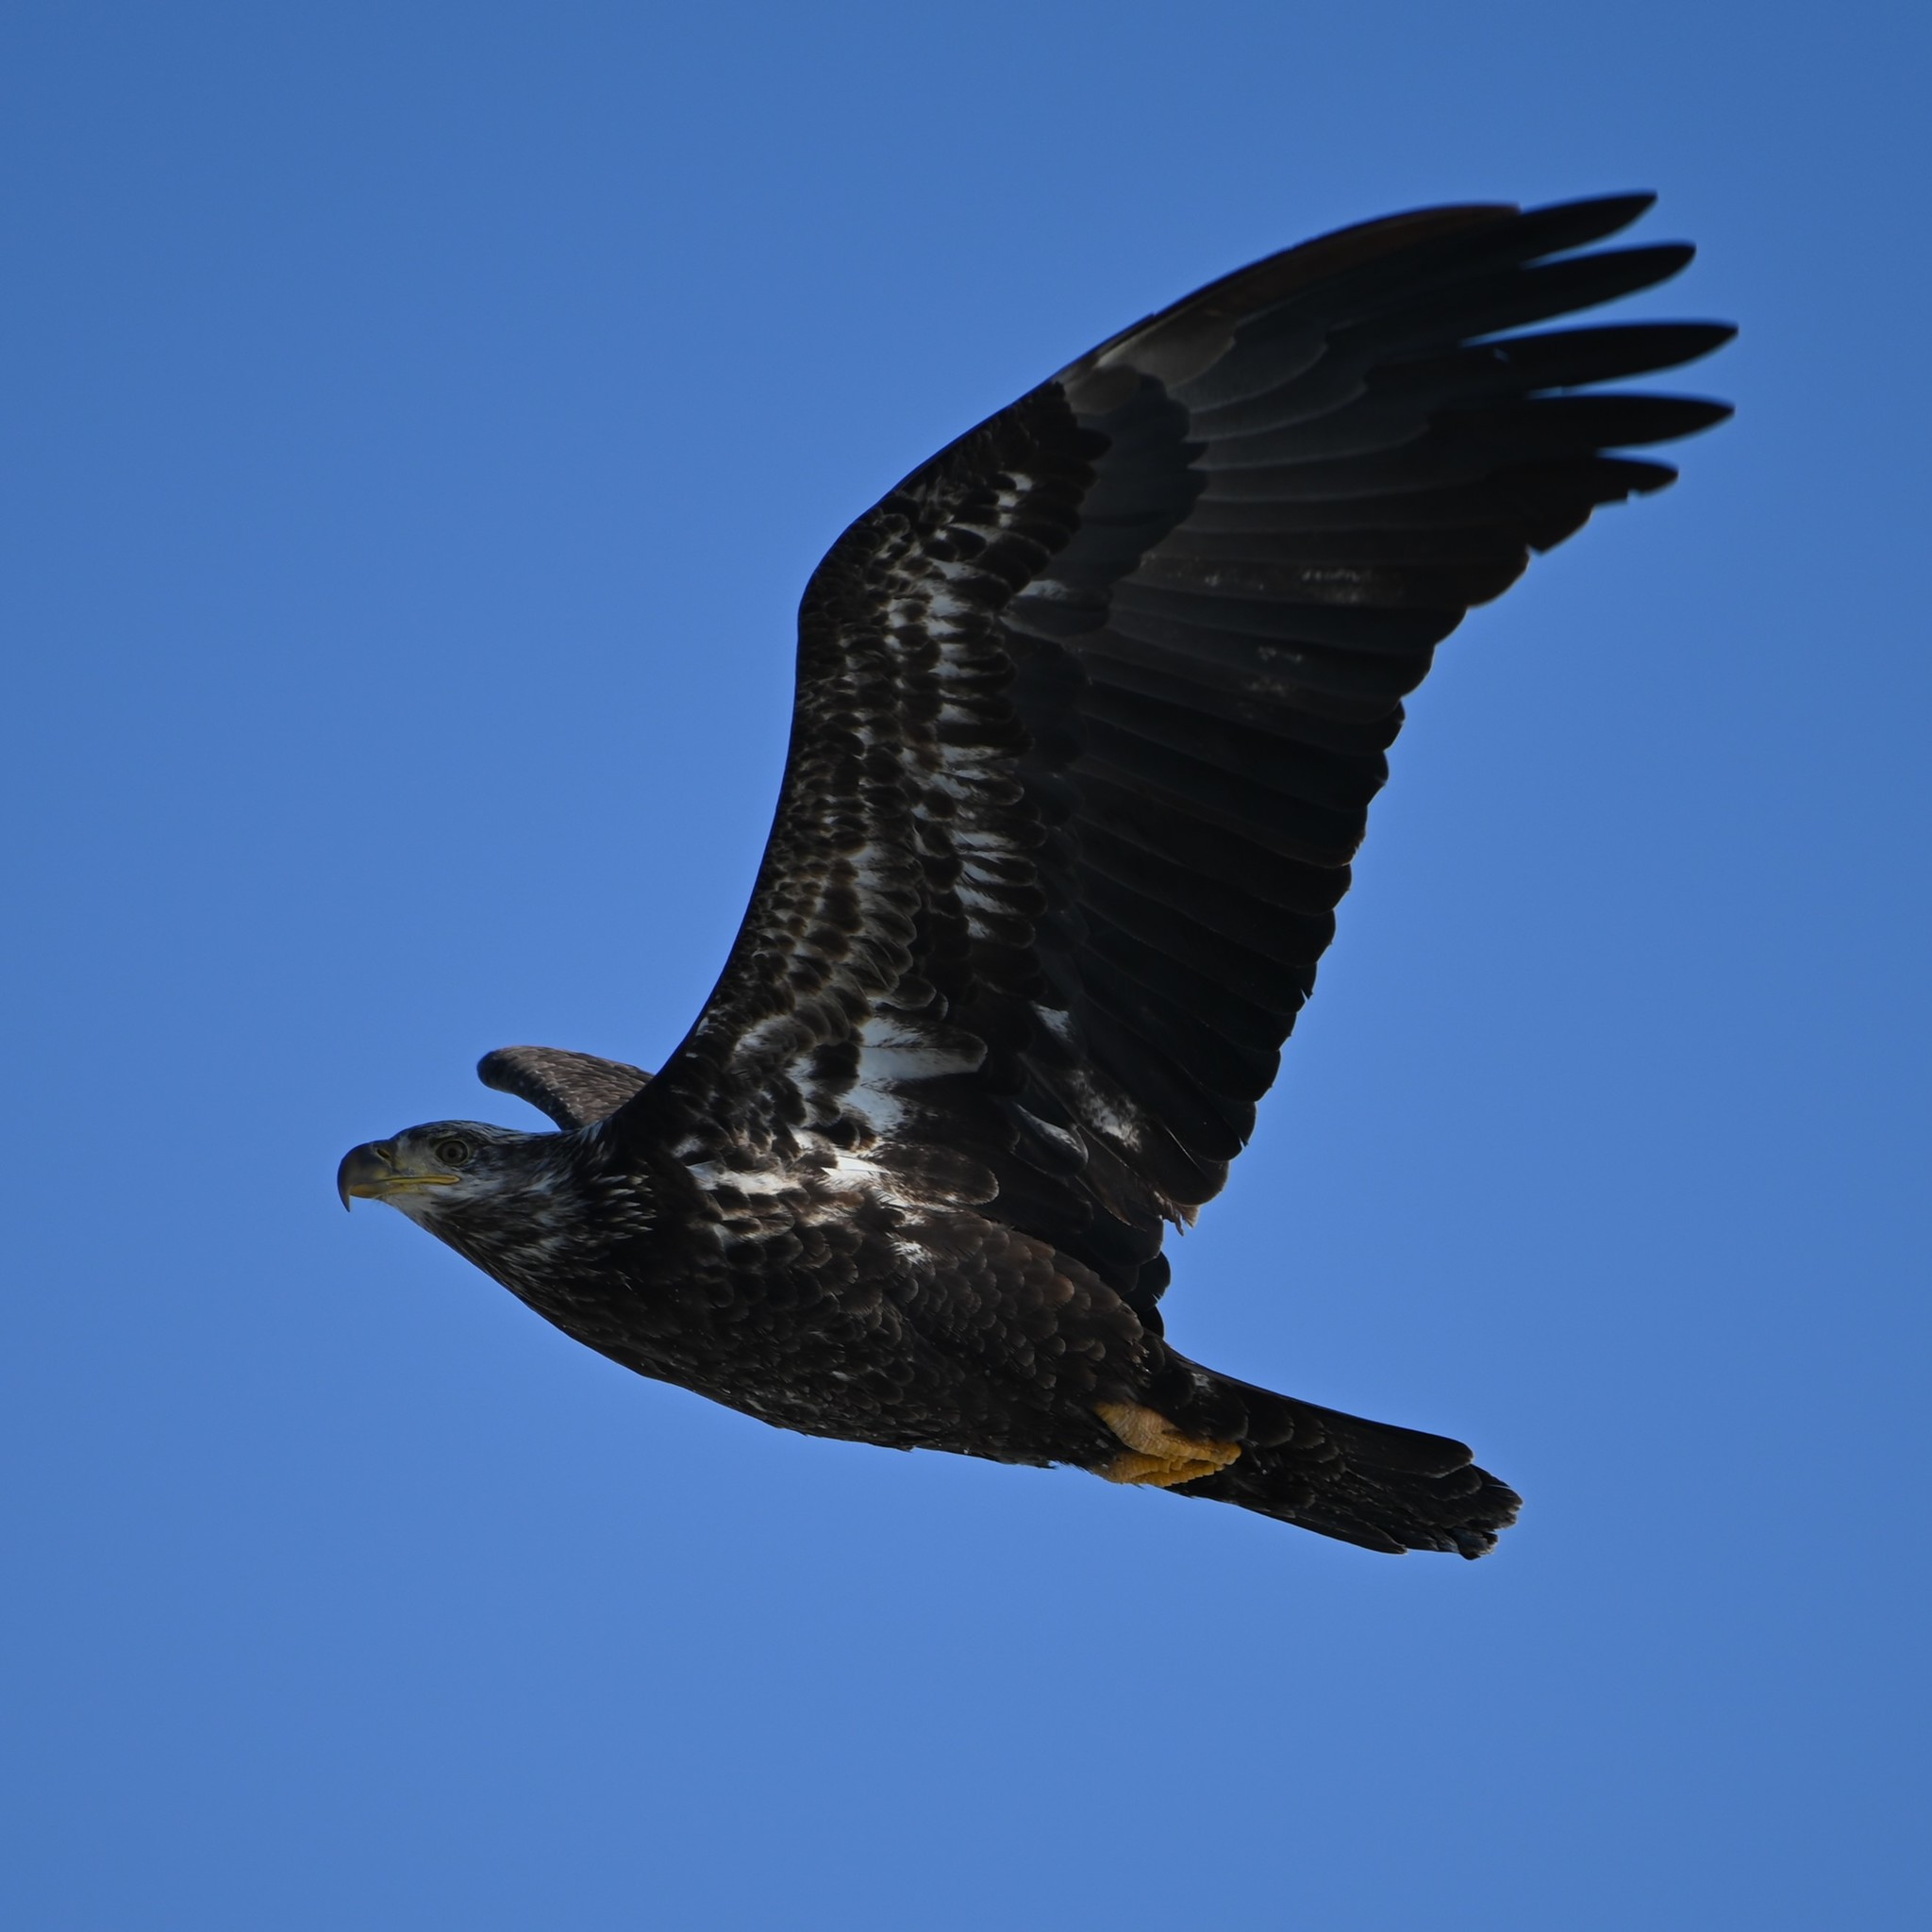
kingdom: Animalia
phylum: Chordata
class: Aves
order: Accipitriformes
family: Accipitridae
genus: Haliaeetus
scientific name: Haliaeetus leucocephalus
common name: Bald eagle
